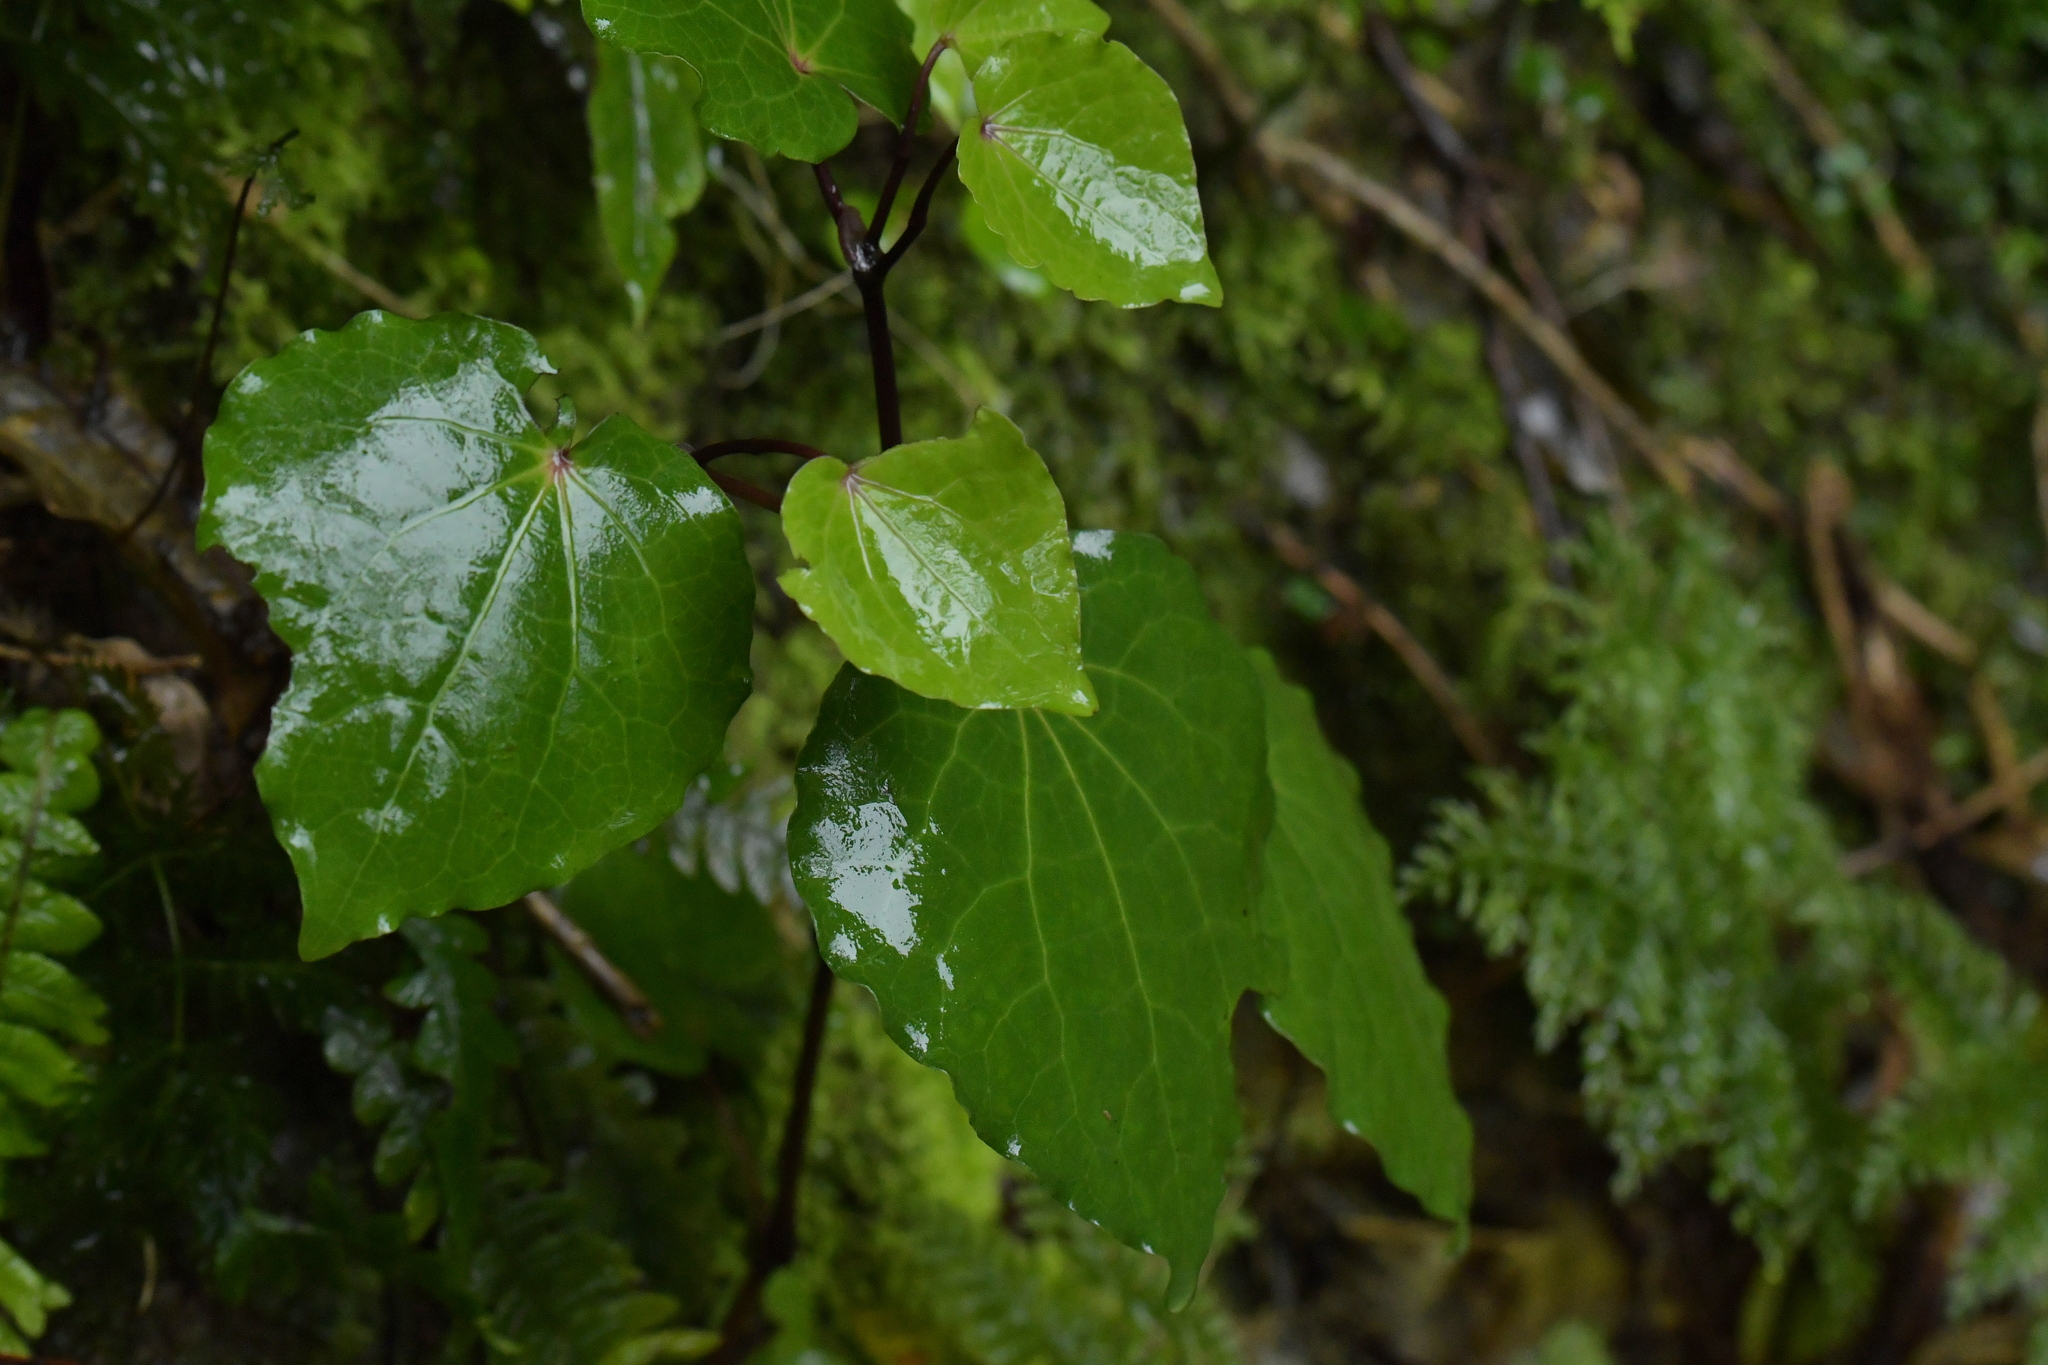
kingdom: Plantae
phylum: Tracheophyta
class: Magnoliopsida
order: Piperales
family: Piperaceae
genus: Macropiper
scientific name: Macropiper excelsum
